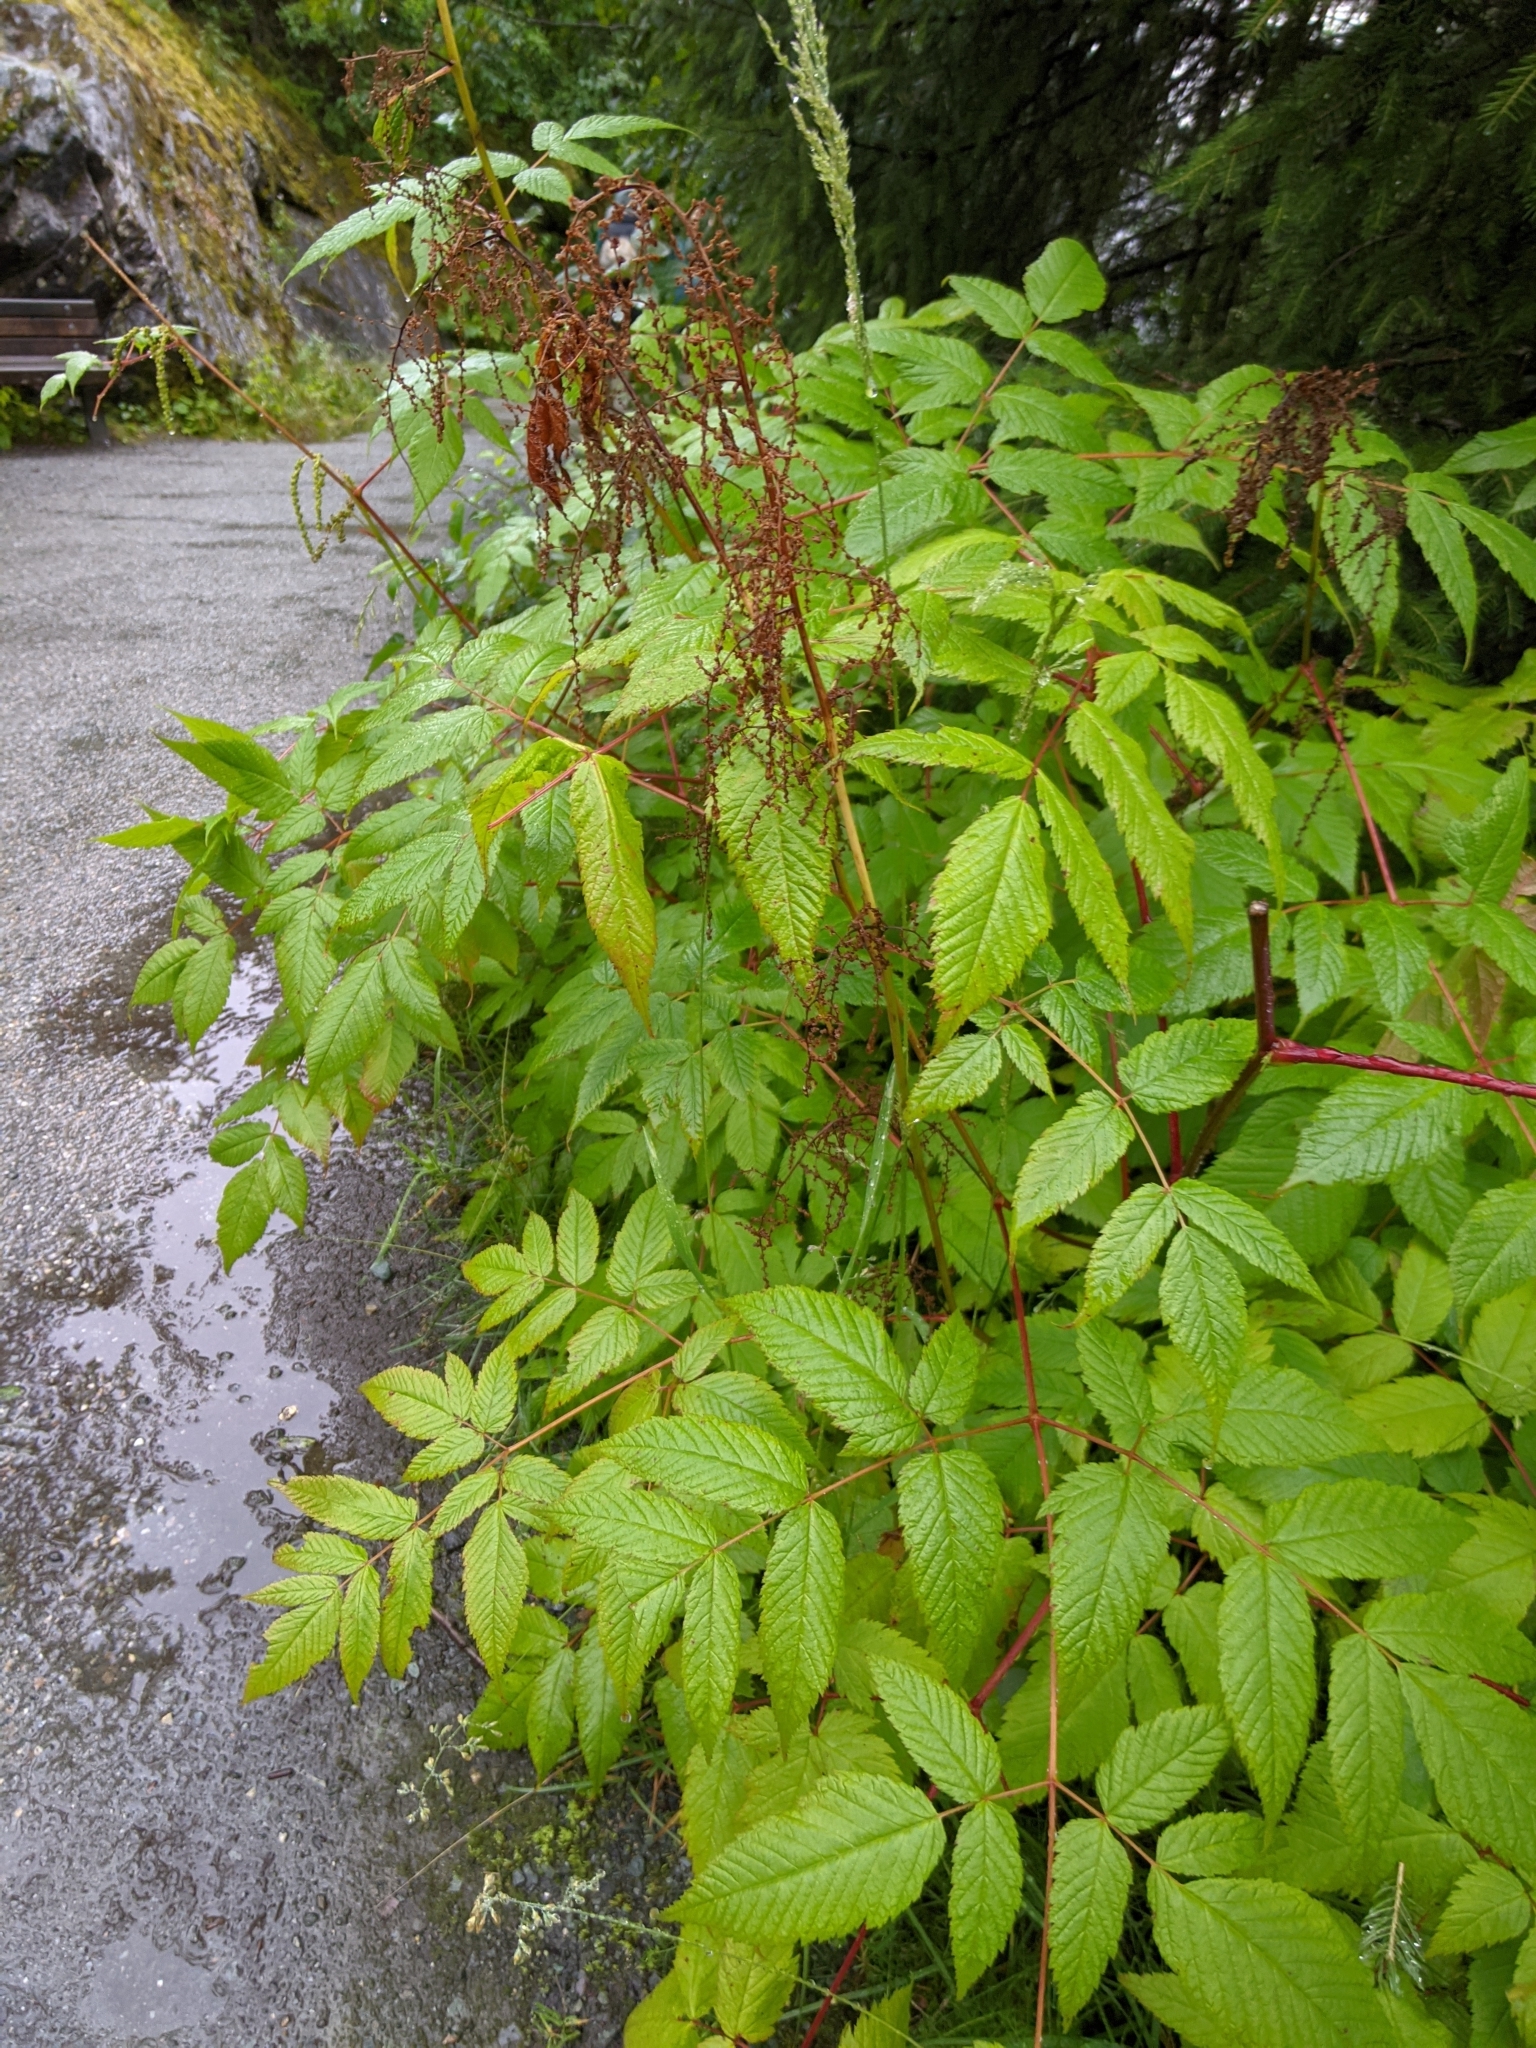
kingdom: Plantae
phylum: Tracheophyta
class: Magnoliopsida
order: Rosales
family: Rosaceae
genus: Aruncus
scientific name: Aruncus dioicus
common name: Buck's-beard
